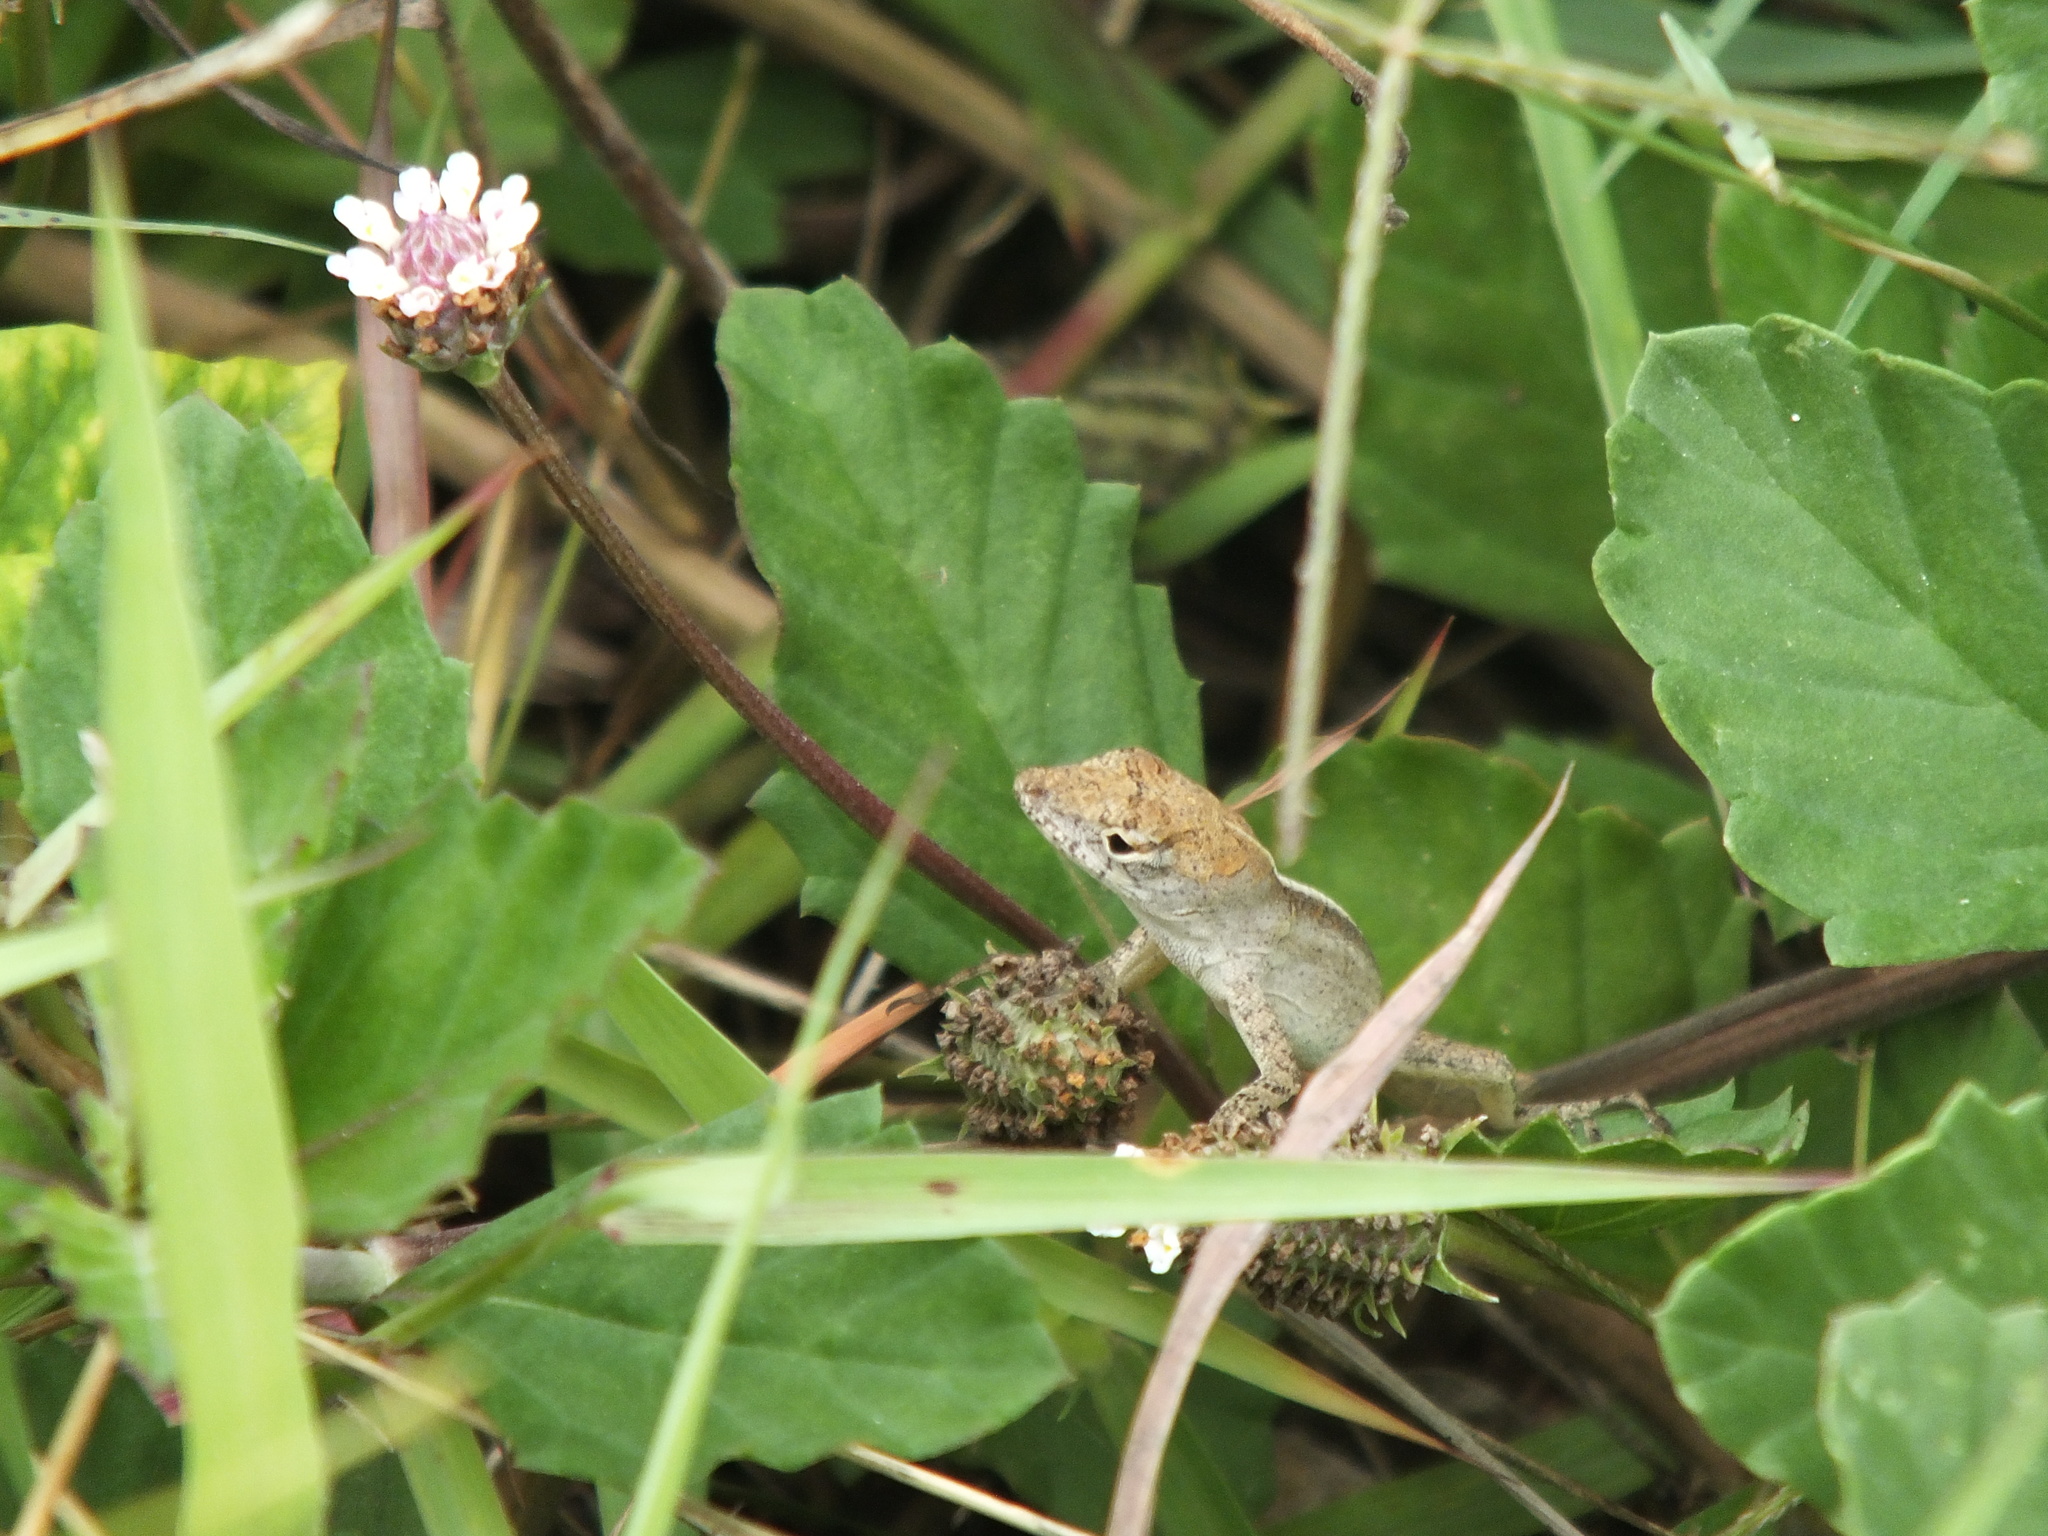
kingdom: Animalia
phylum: Chordata
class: Squamata
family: Dactyloidae
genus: Anolis
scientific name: Anolis sagrei
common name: Brown anole
